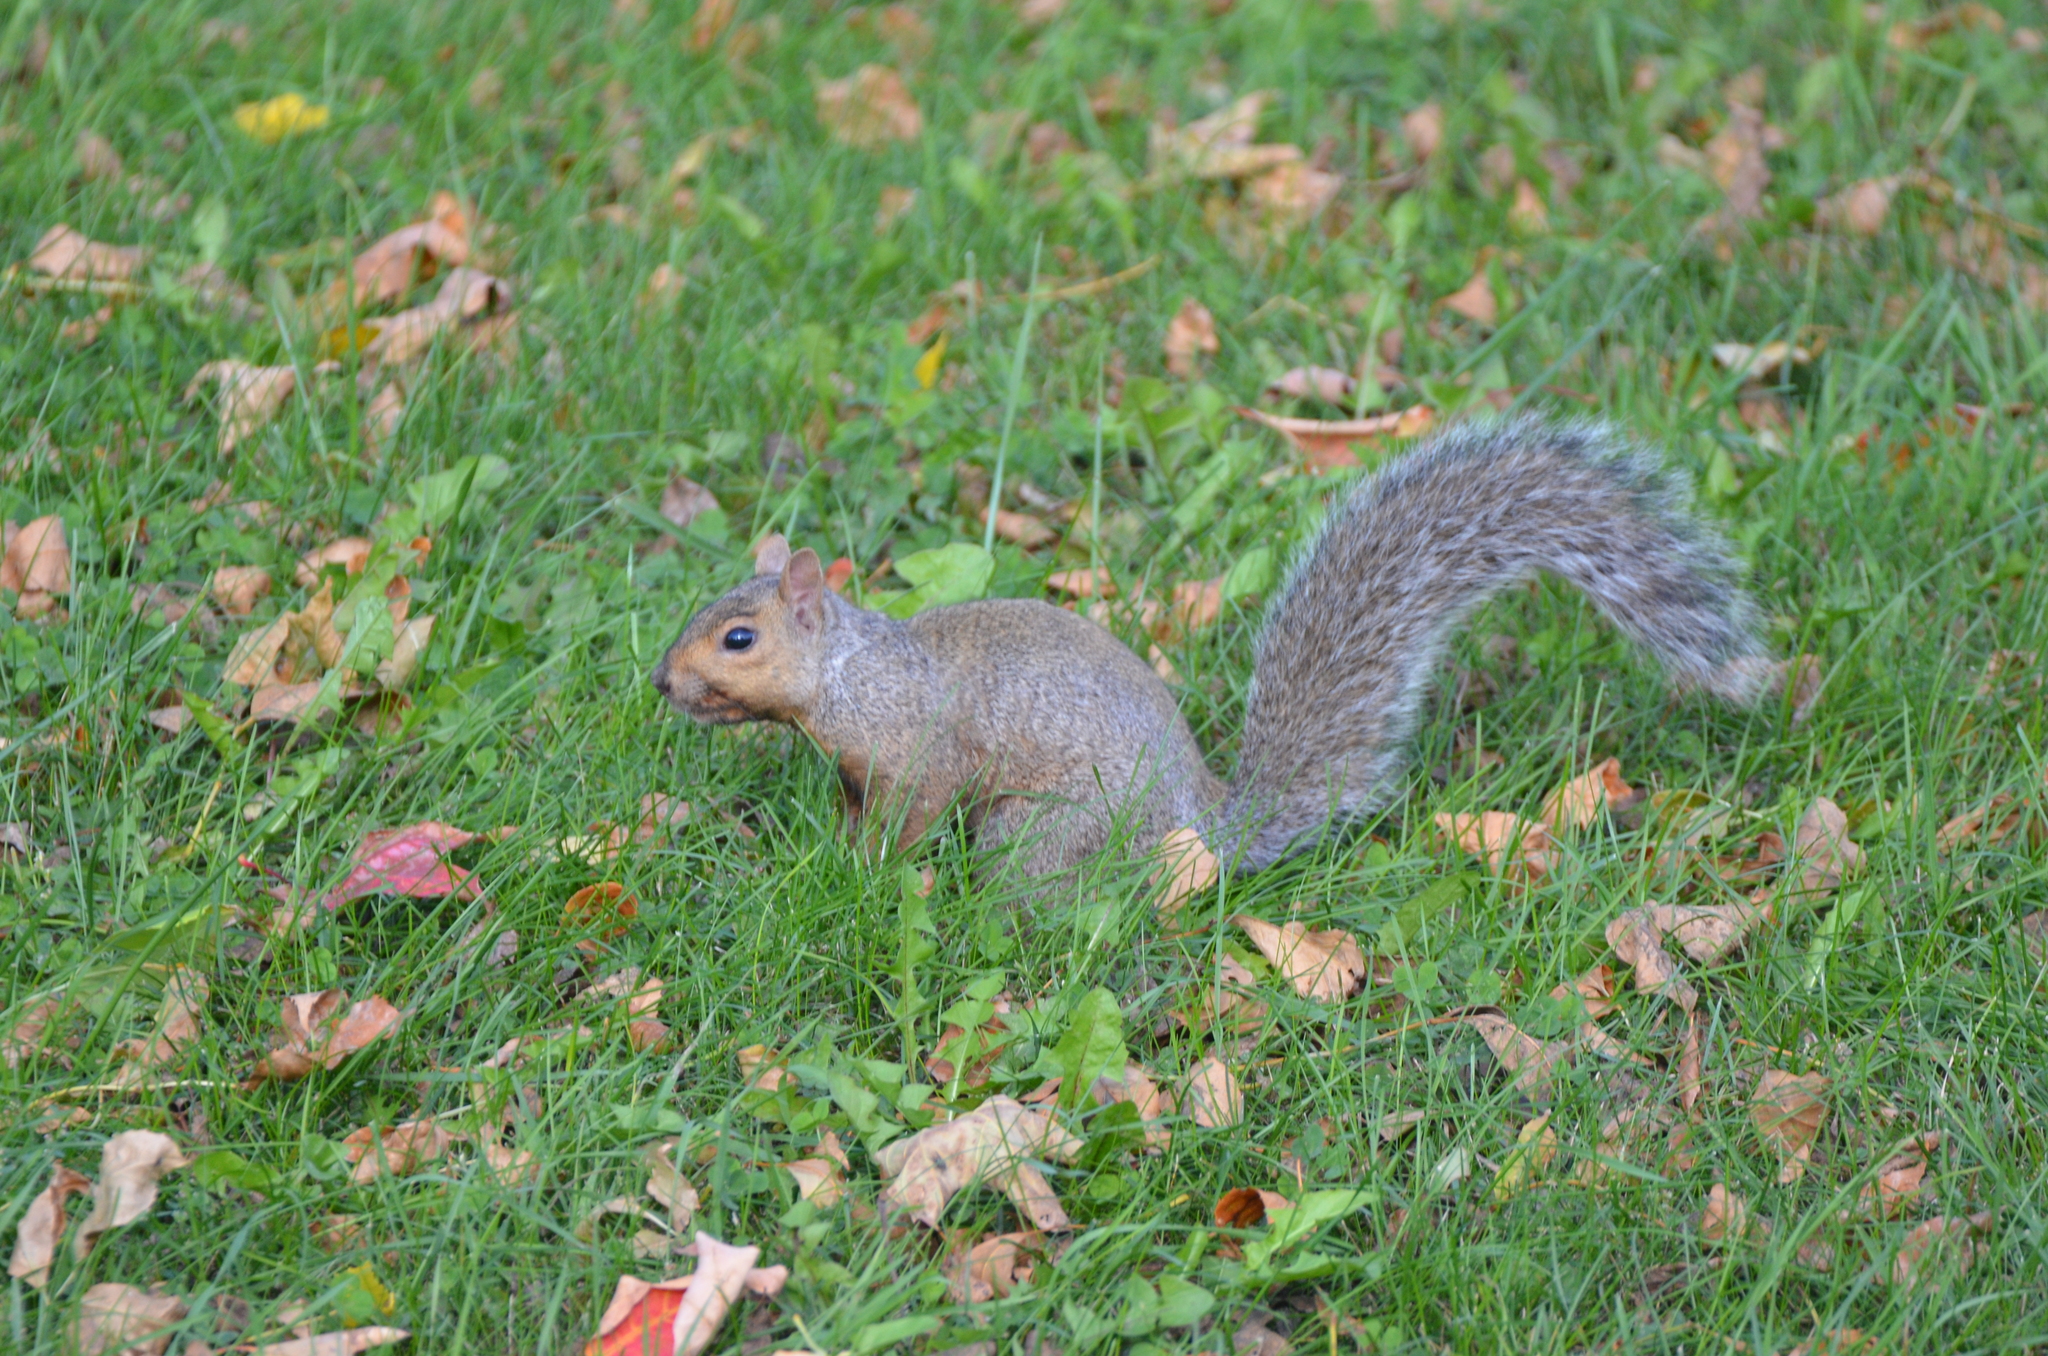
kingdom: Animalia
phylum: Chordata
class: Mammalia
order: Rodentia
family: Sciuridae
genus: Sciurus
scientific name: Sciurus carolinensis
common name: Eastern gray squirrel
